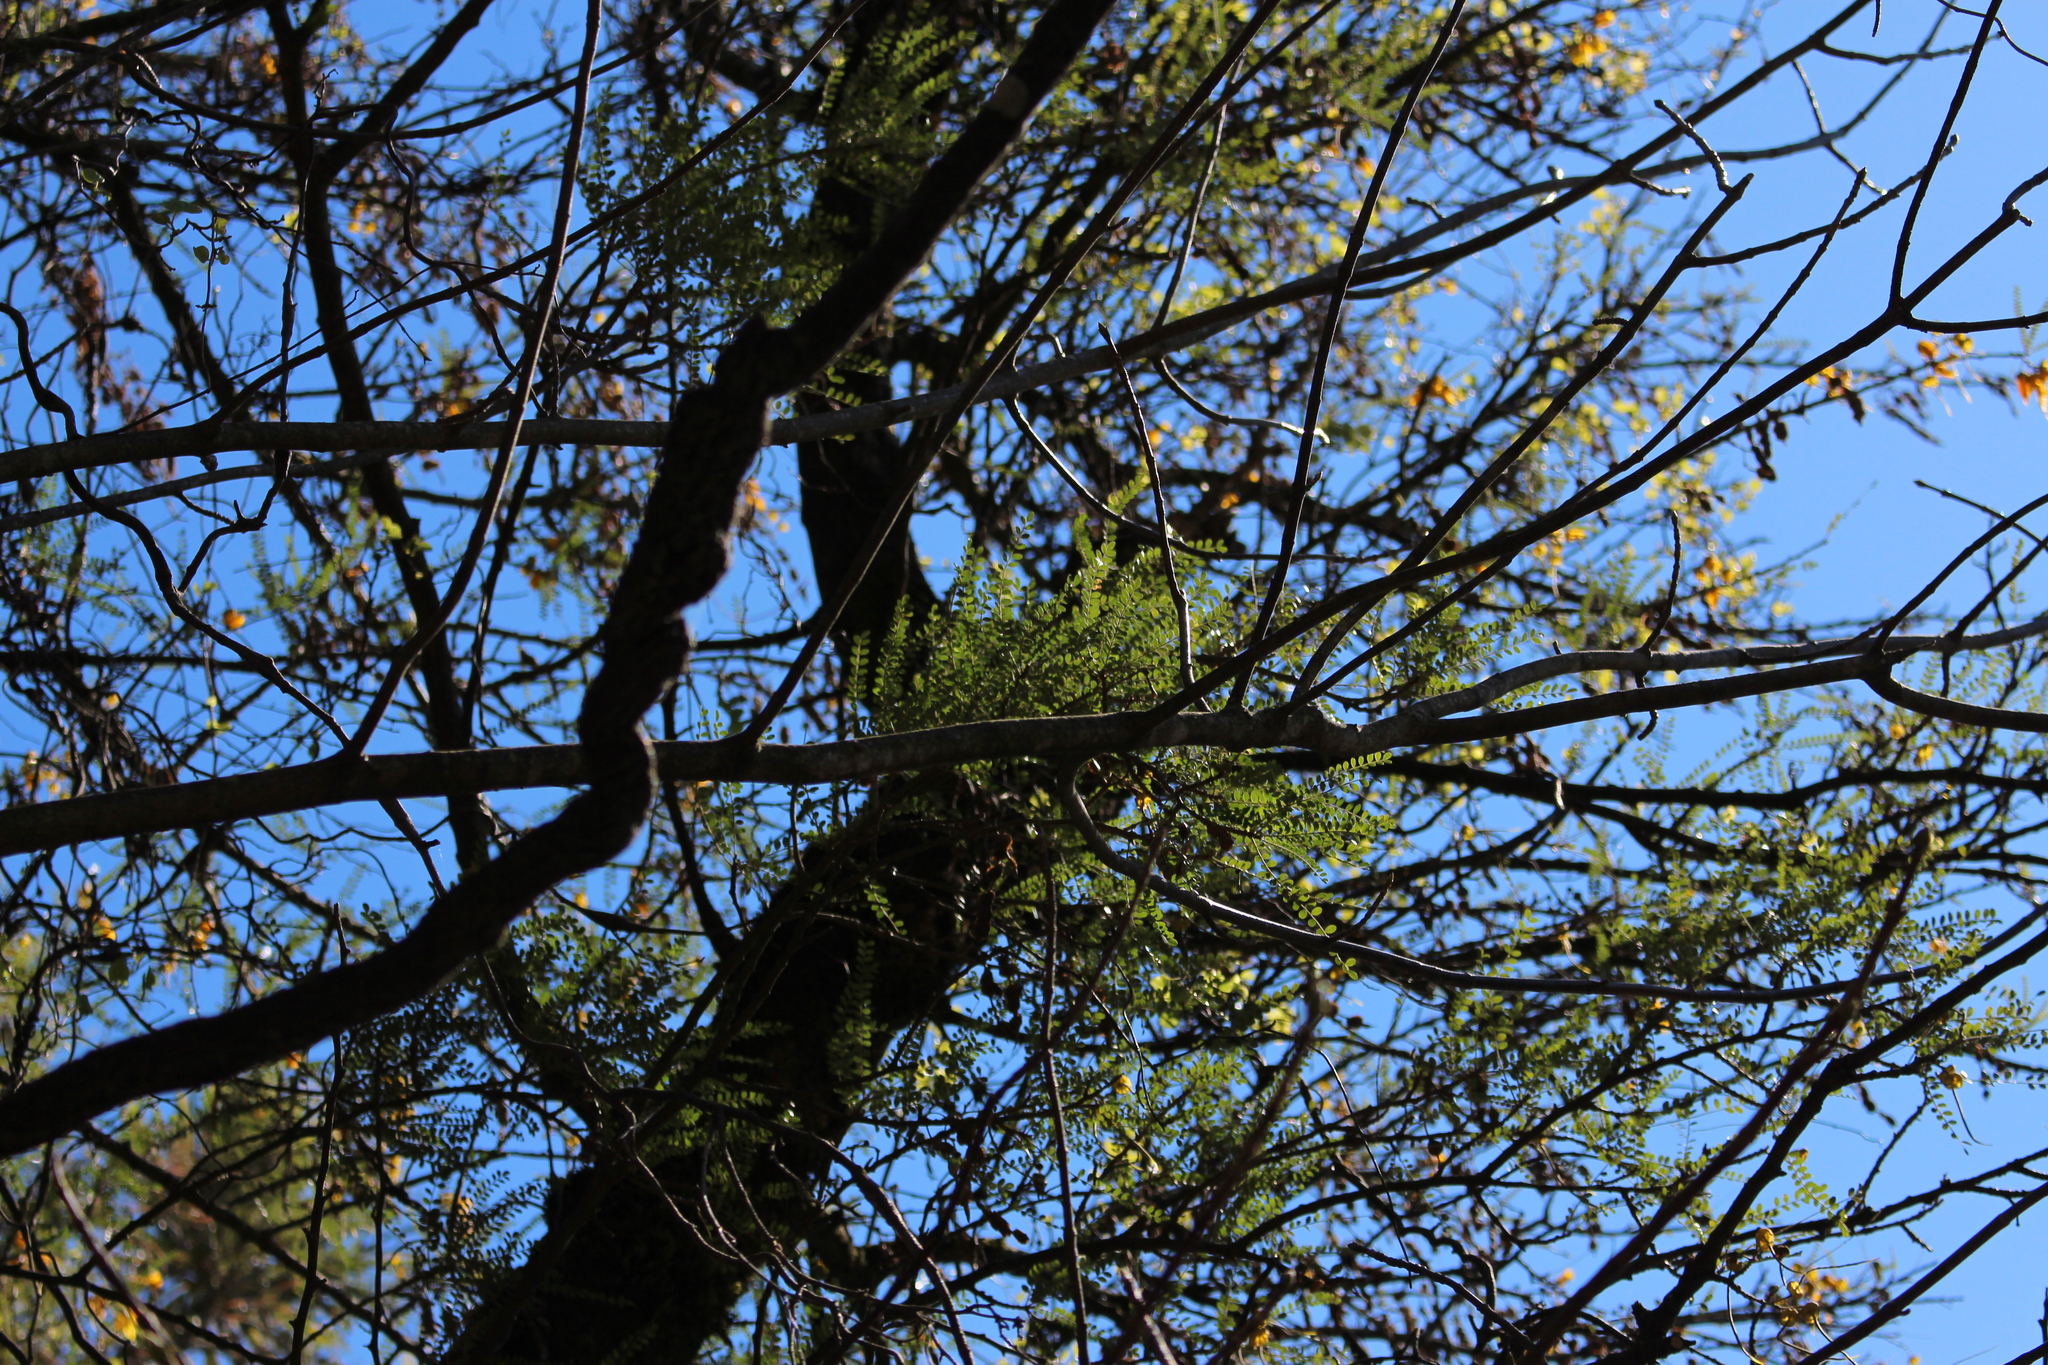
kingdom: Plantae
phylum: Tracheophyta
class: Magnoliopsida
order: Fabales
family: Fabaceae
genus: Sophora
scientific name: Sophora microphylla
